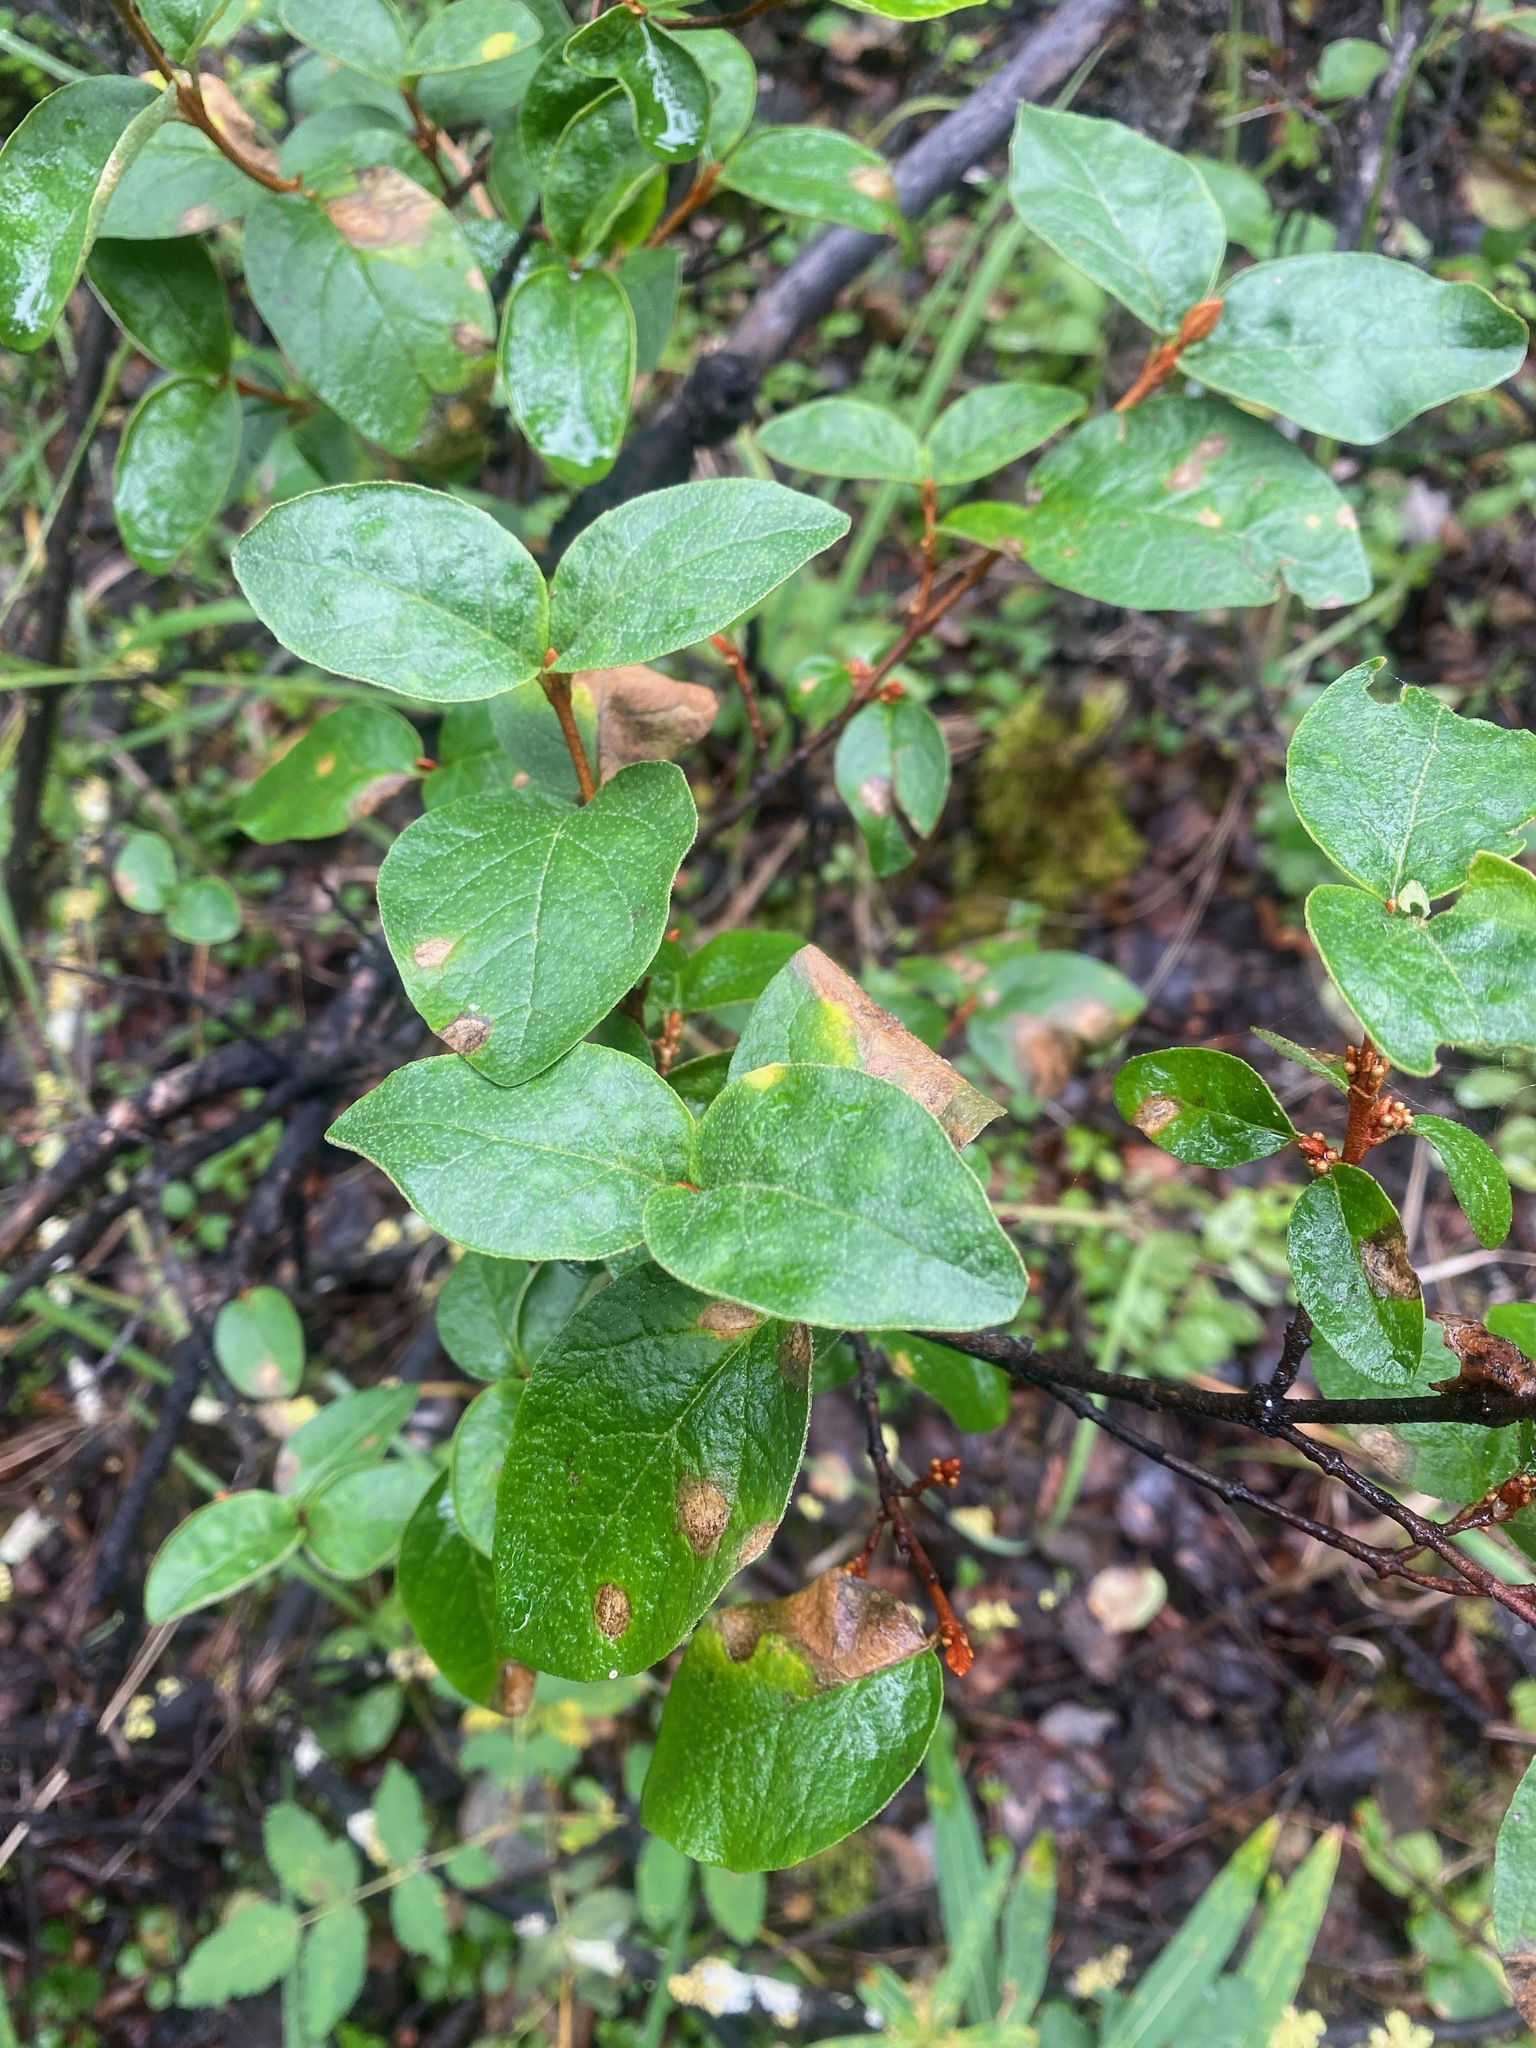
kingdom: Plantae
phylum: Tracheophyta
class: Magnoliopsida
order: Rosales
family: Elaeagnaceae
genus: Shepherdia
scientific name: Shepherdia canadensis
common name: Soapberry
